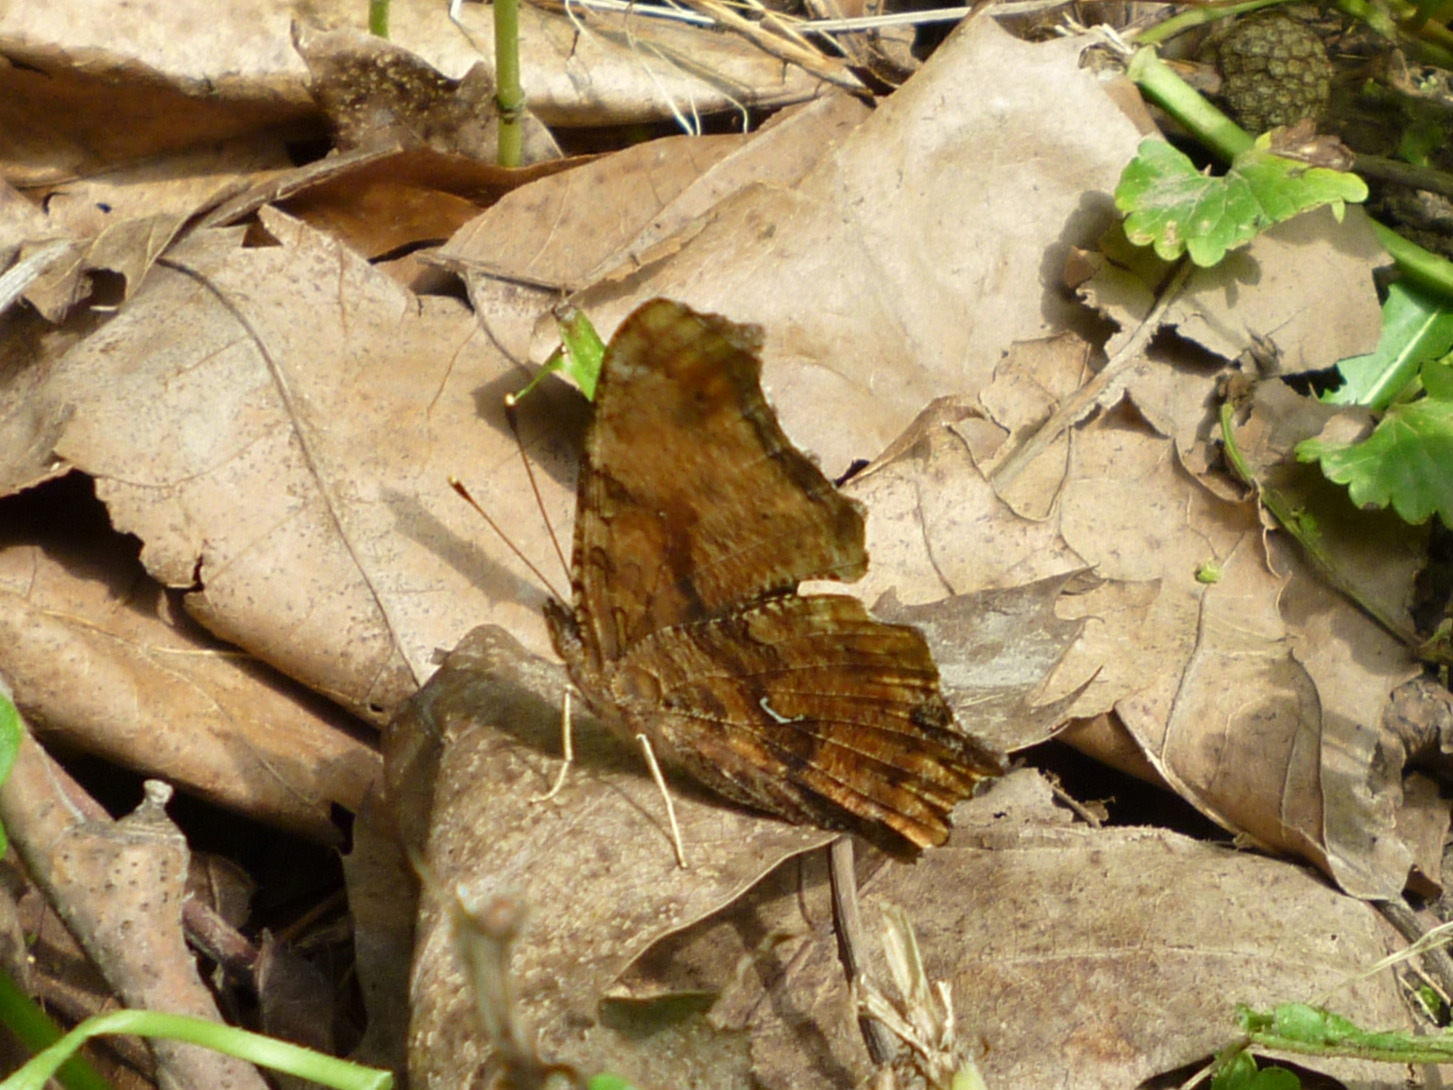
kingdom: Animalia
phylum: Arthropoda
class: Insecta
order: Lepidoptera
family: Nymphalidae
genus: Polygonia
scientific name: Polygonia comma
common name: Eastern comma
